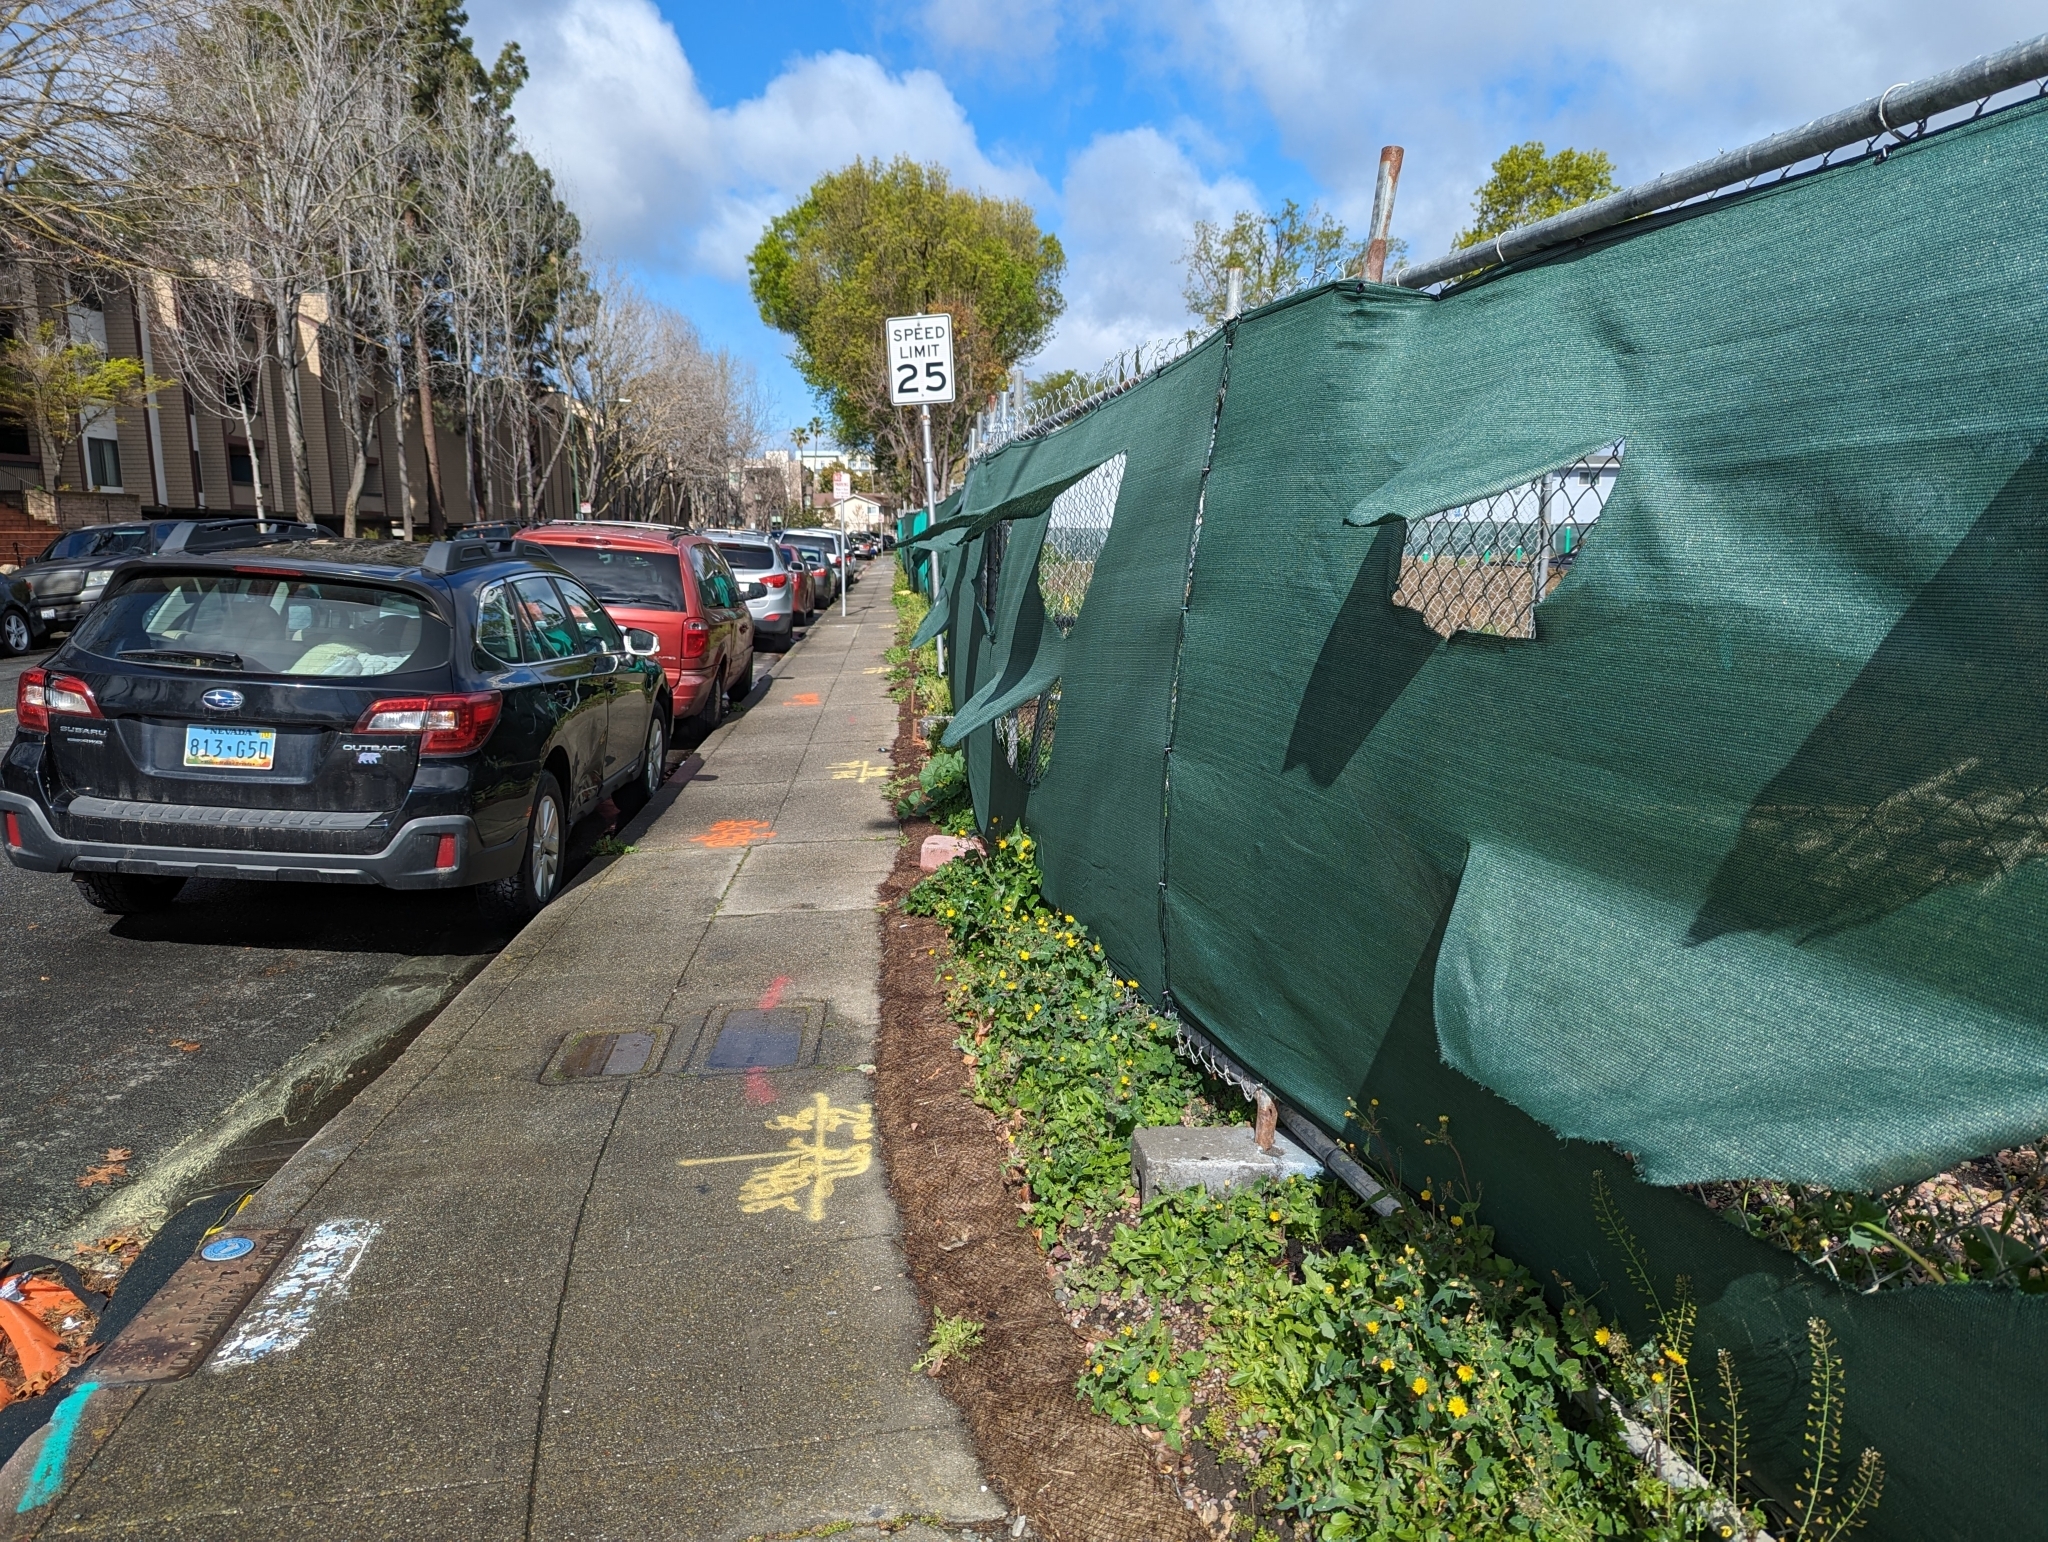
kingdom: Plantae
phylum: Tracheophyta
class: Magnoliopsida
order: Asterales
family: Asteraceae
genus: Sonchus
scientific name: Sonchus oleraceus
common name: Common sowthistle
